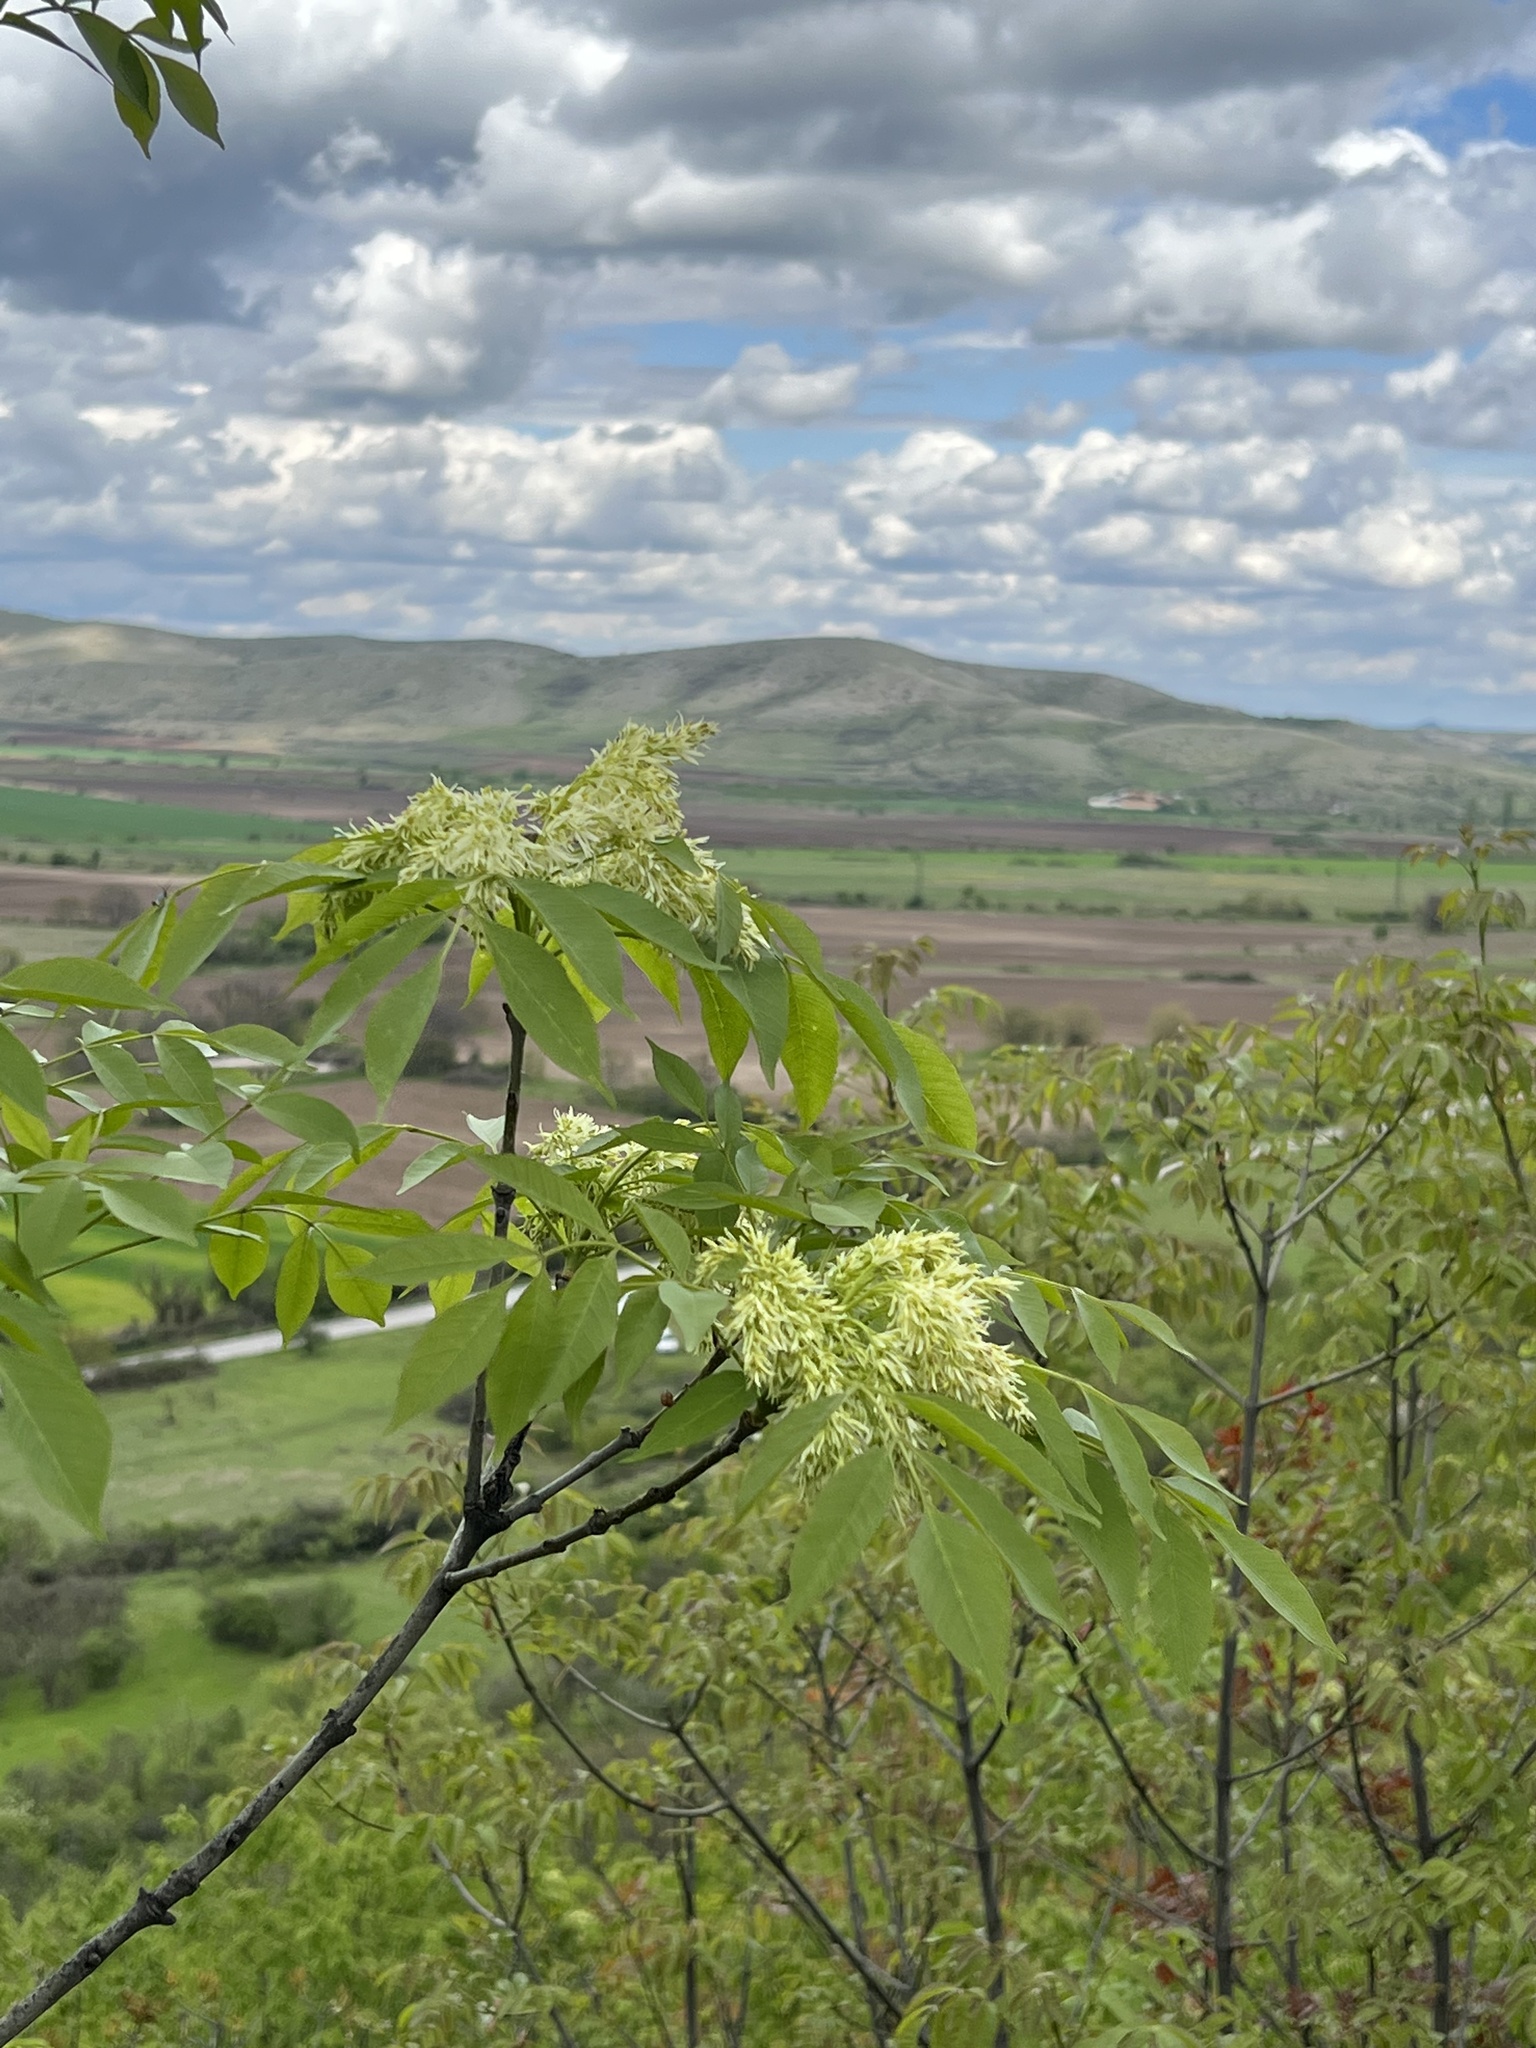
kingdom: Plantae
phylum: Tracheophyta
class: Magnoliopsida
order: Lamiales
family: Oleaceae
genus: Fraxinus
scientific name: Fraxinus ornus
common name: Manna ash
